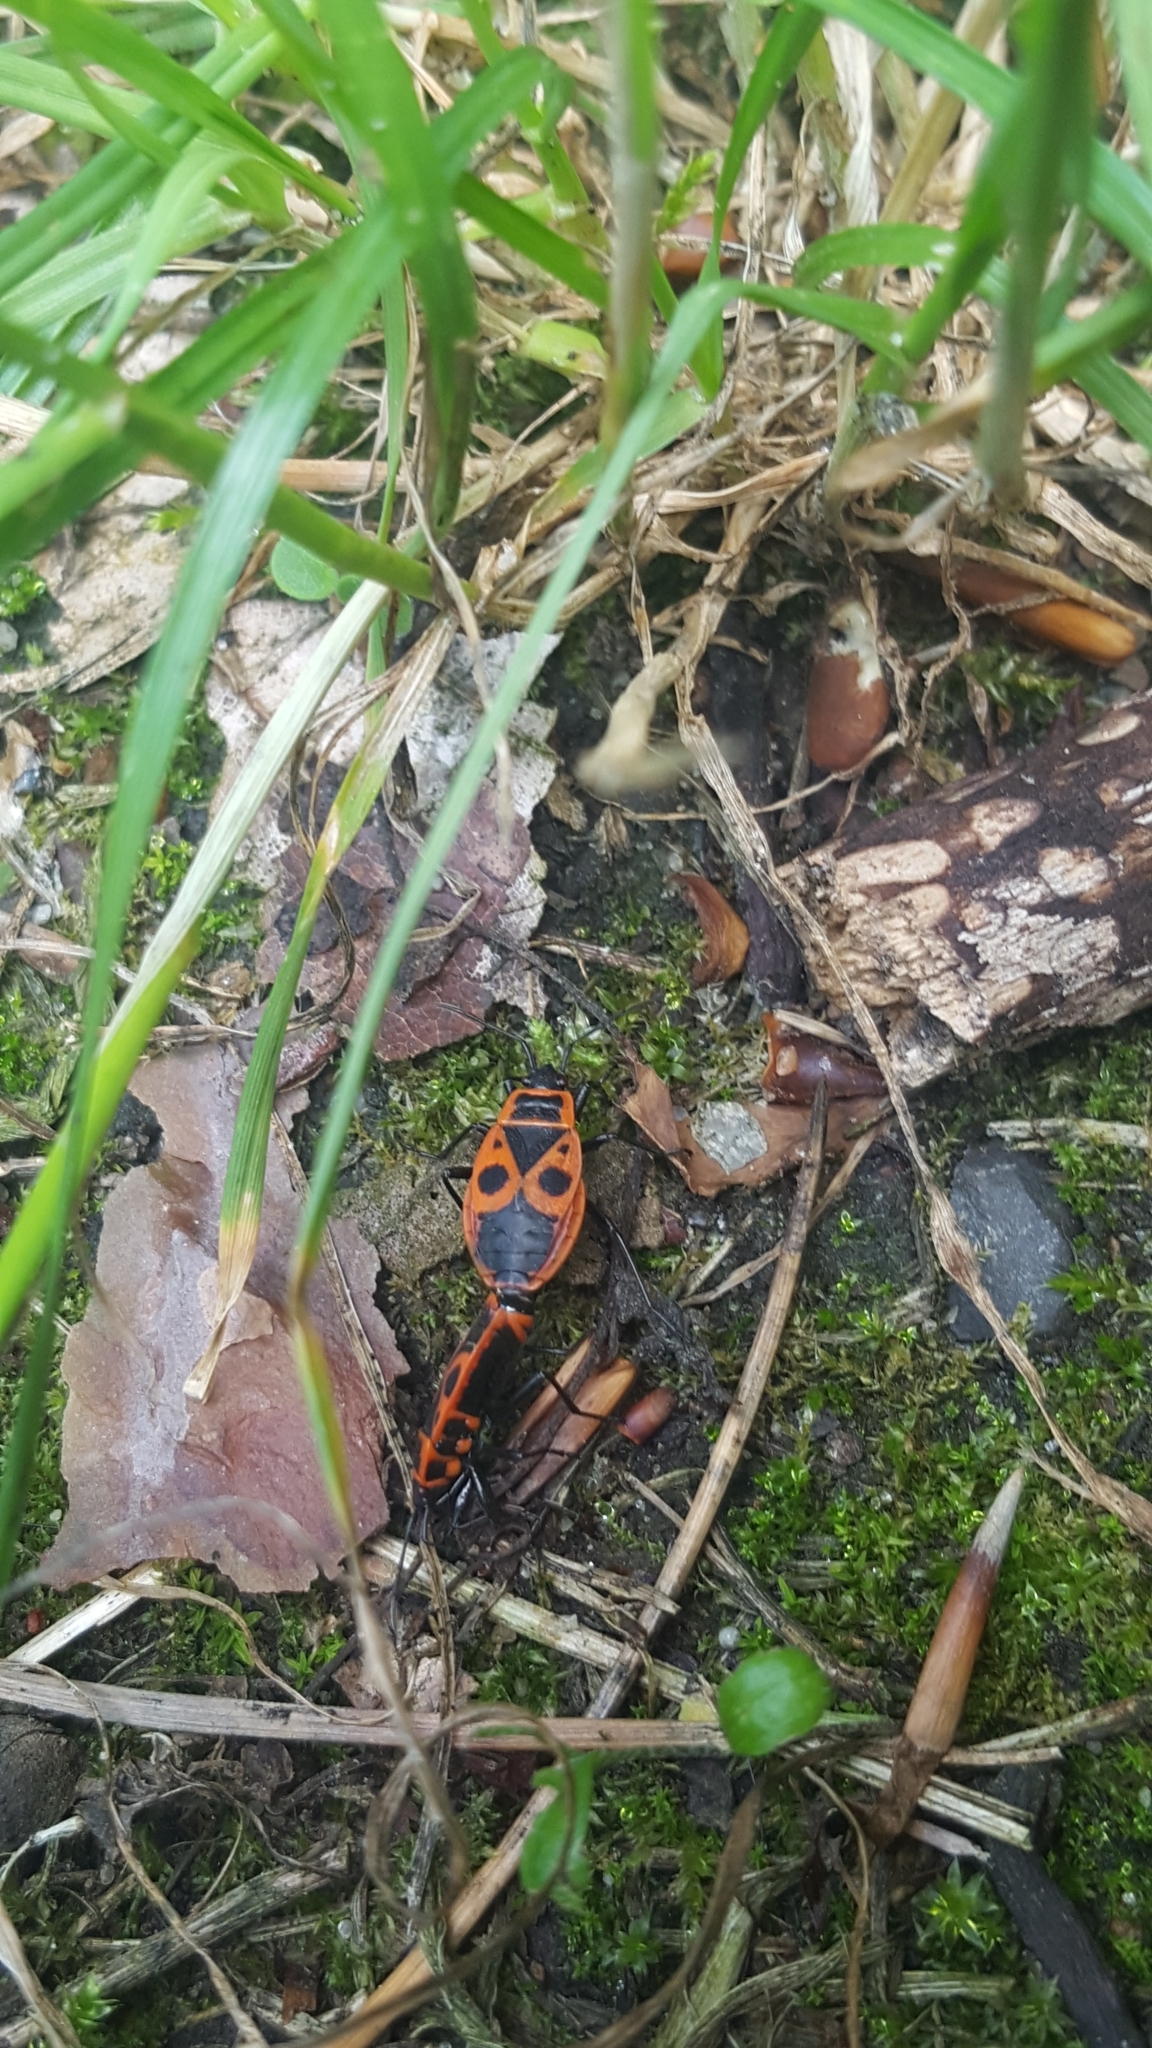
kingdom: Animalia
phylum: Arthropoda
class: Insecta
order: Hemiptera
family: Pyrrhocoridae
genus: Pyrrhocoris
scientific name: Pyrrhocoris apterus
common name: Firebug
